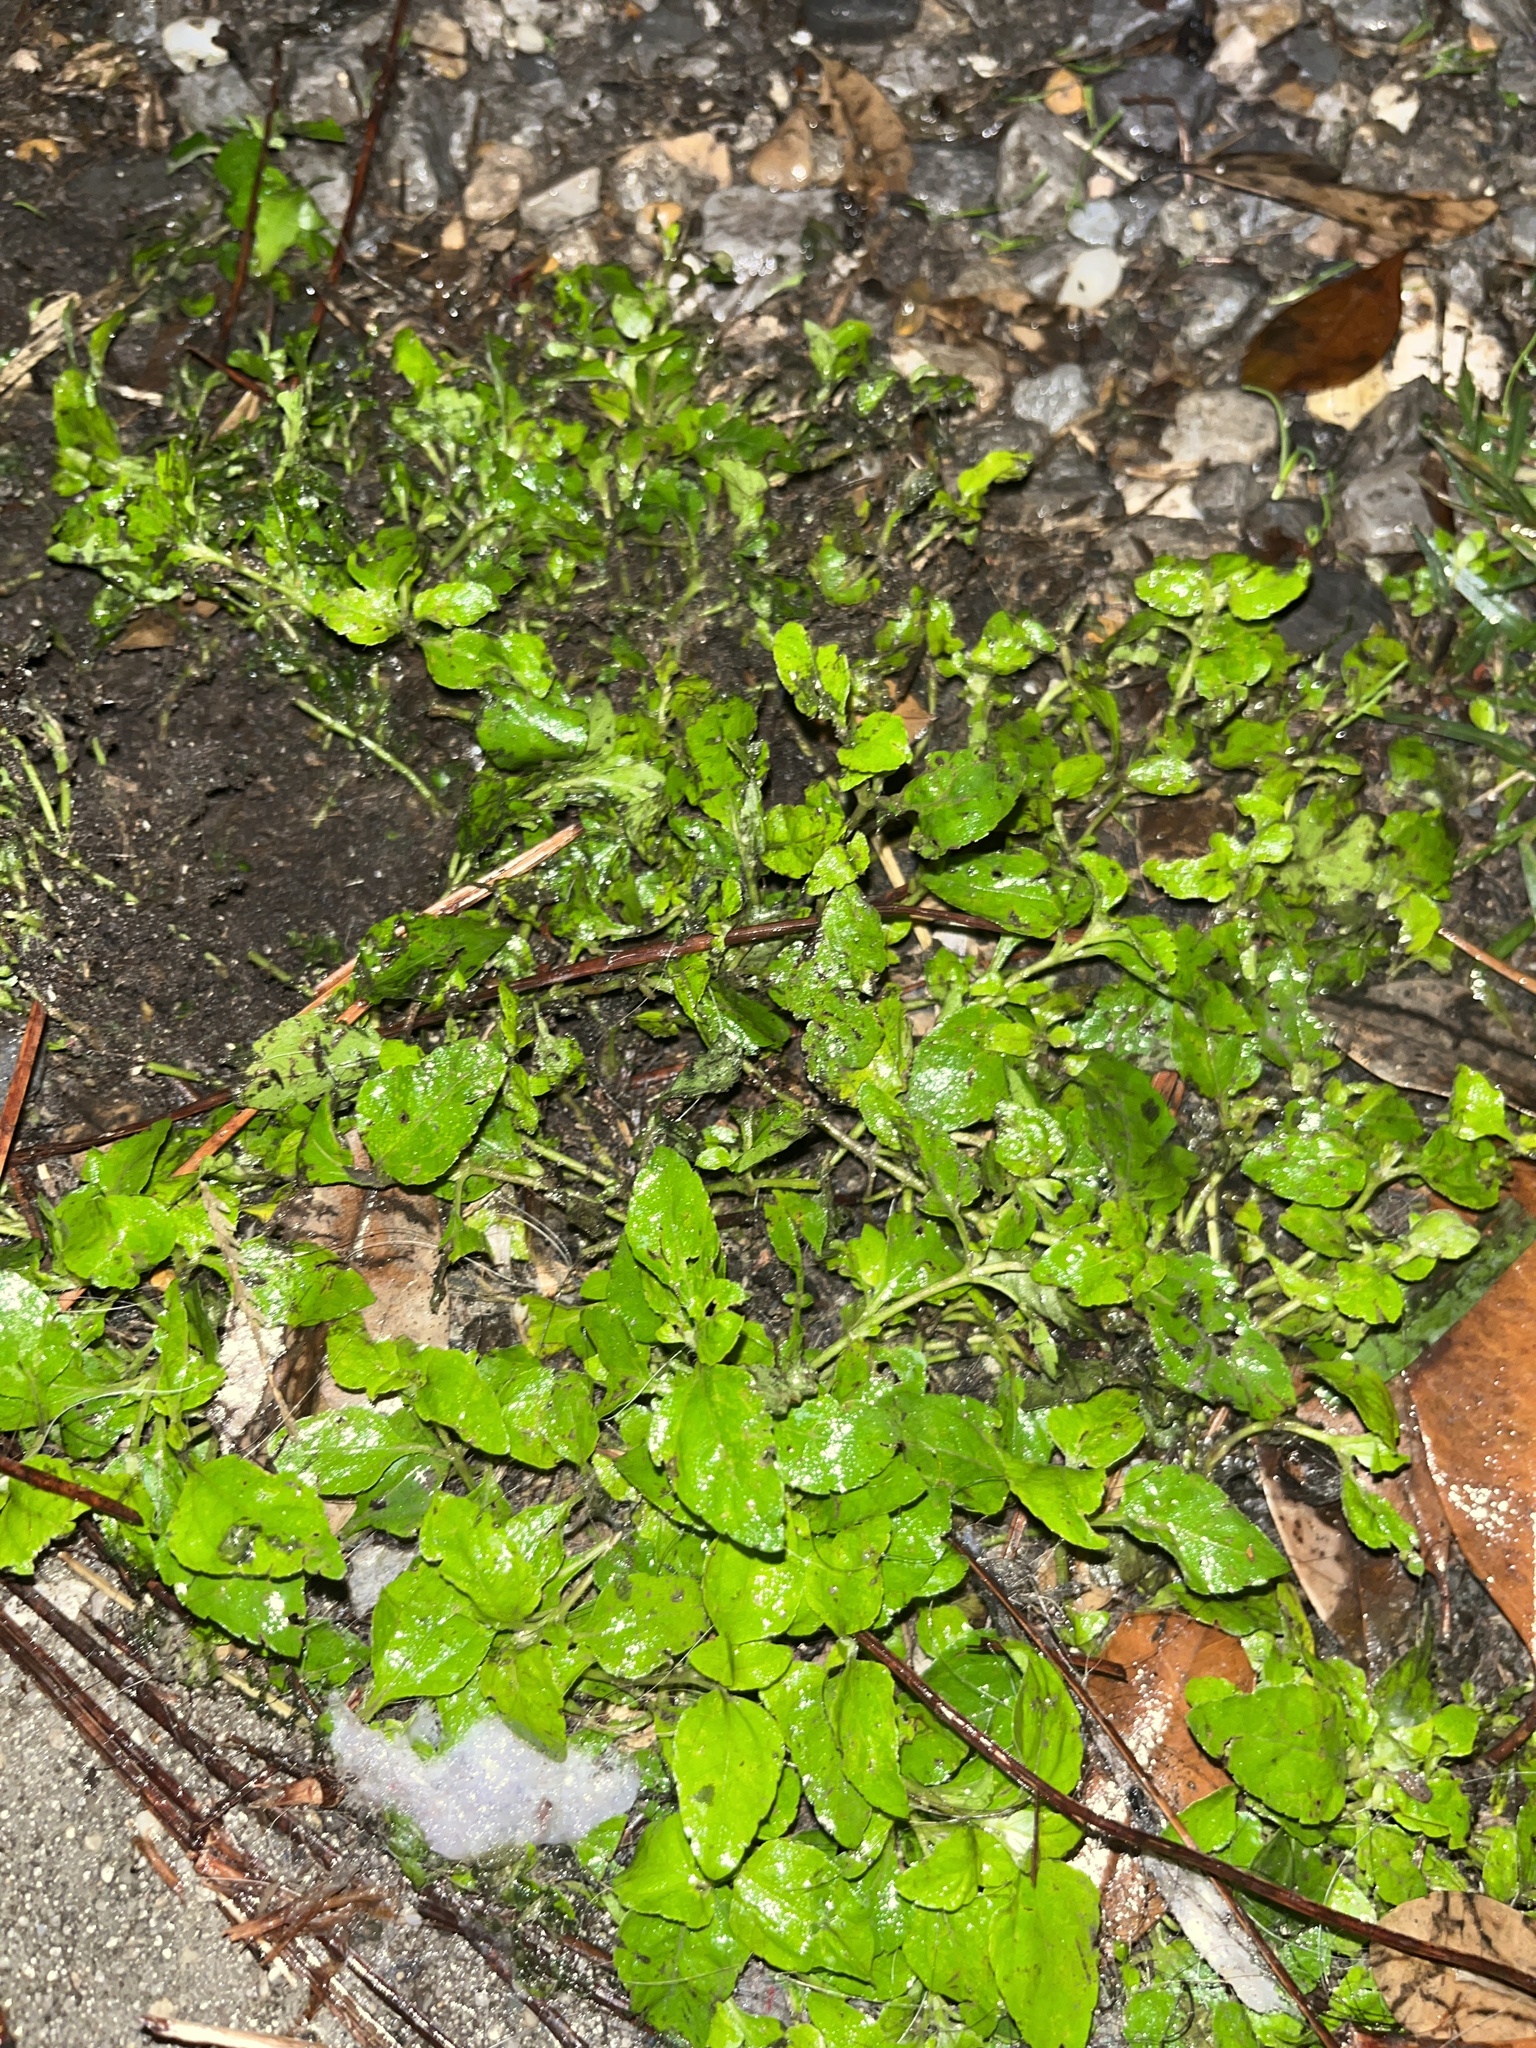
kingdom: Plantae
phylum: Tracheophyta
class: Magnoliopsida
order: Asterales
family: Asteraceae
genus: Calyptocarpus
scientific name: Calyptocarpus vialis
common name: Straggler daisy
